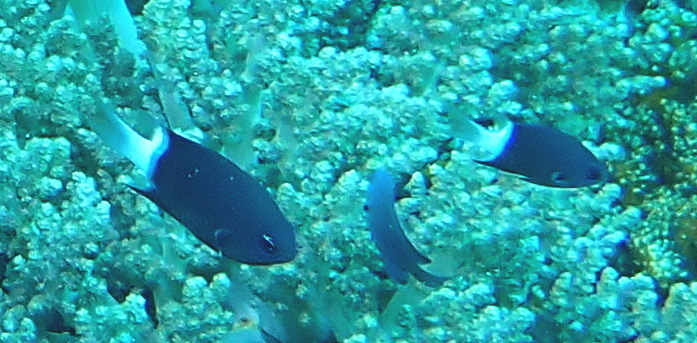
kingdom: Animalia
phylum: Chordata
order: Perciformes
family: Pomacentridae
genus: Pycnochromis
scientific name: Pycnochromis margaritifer
